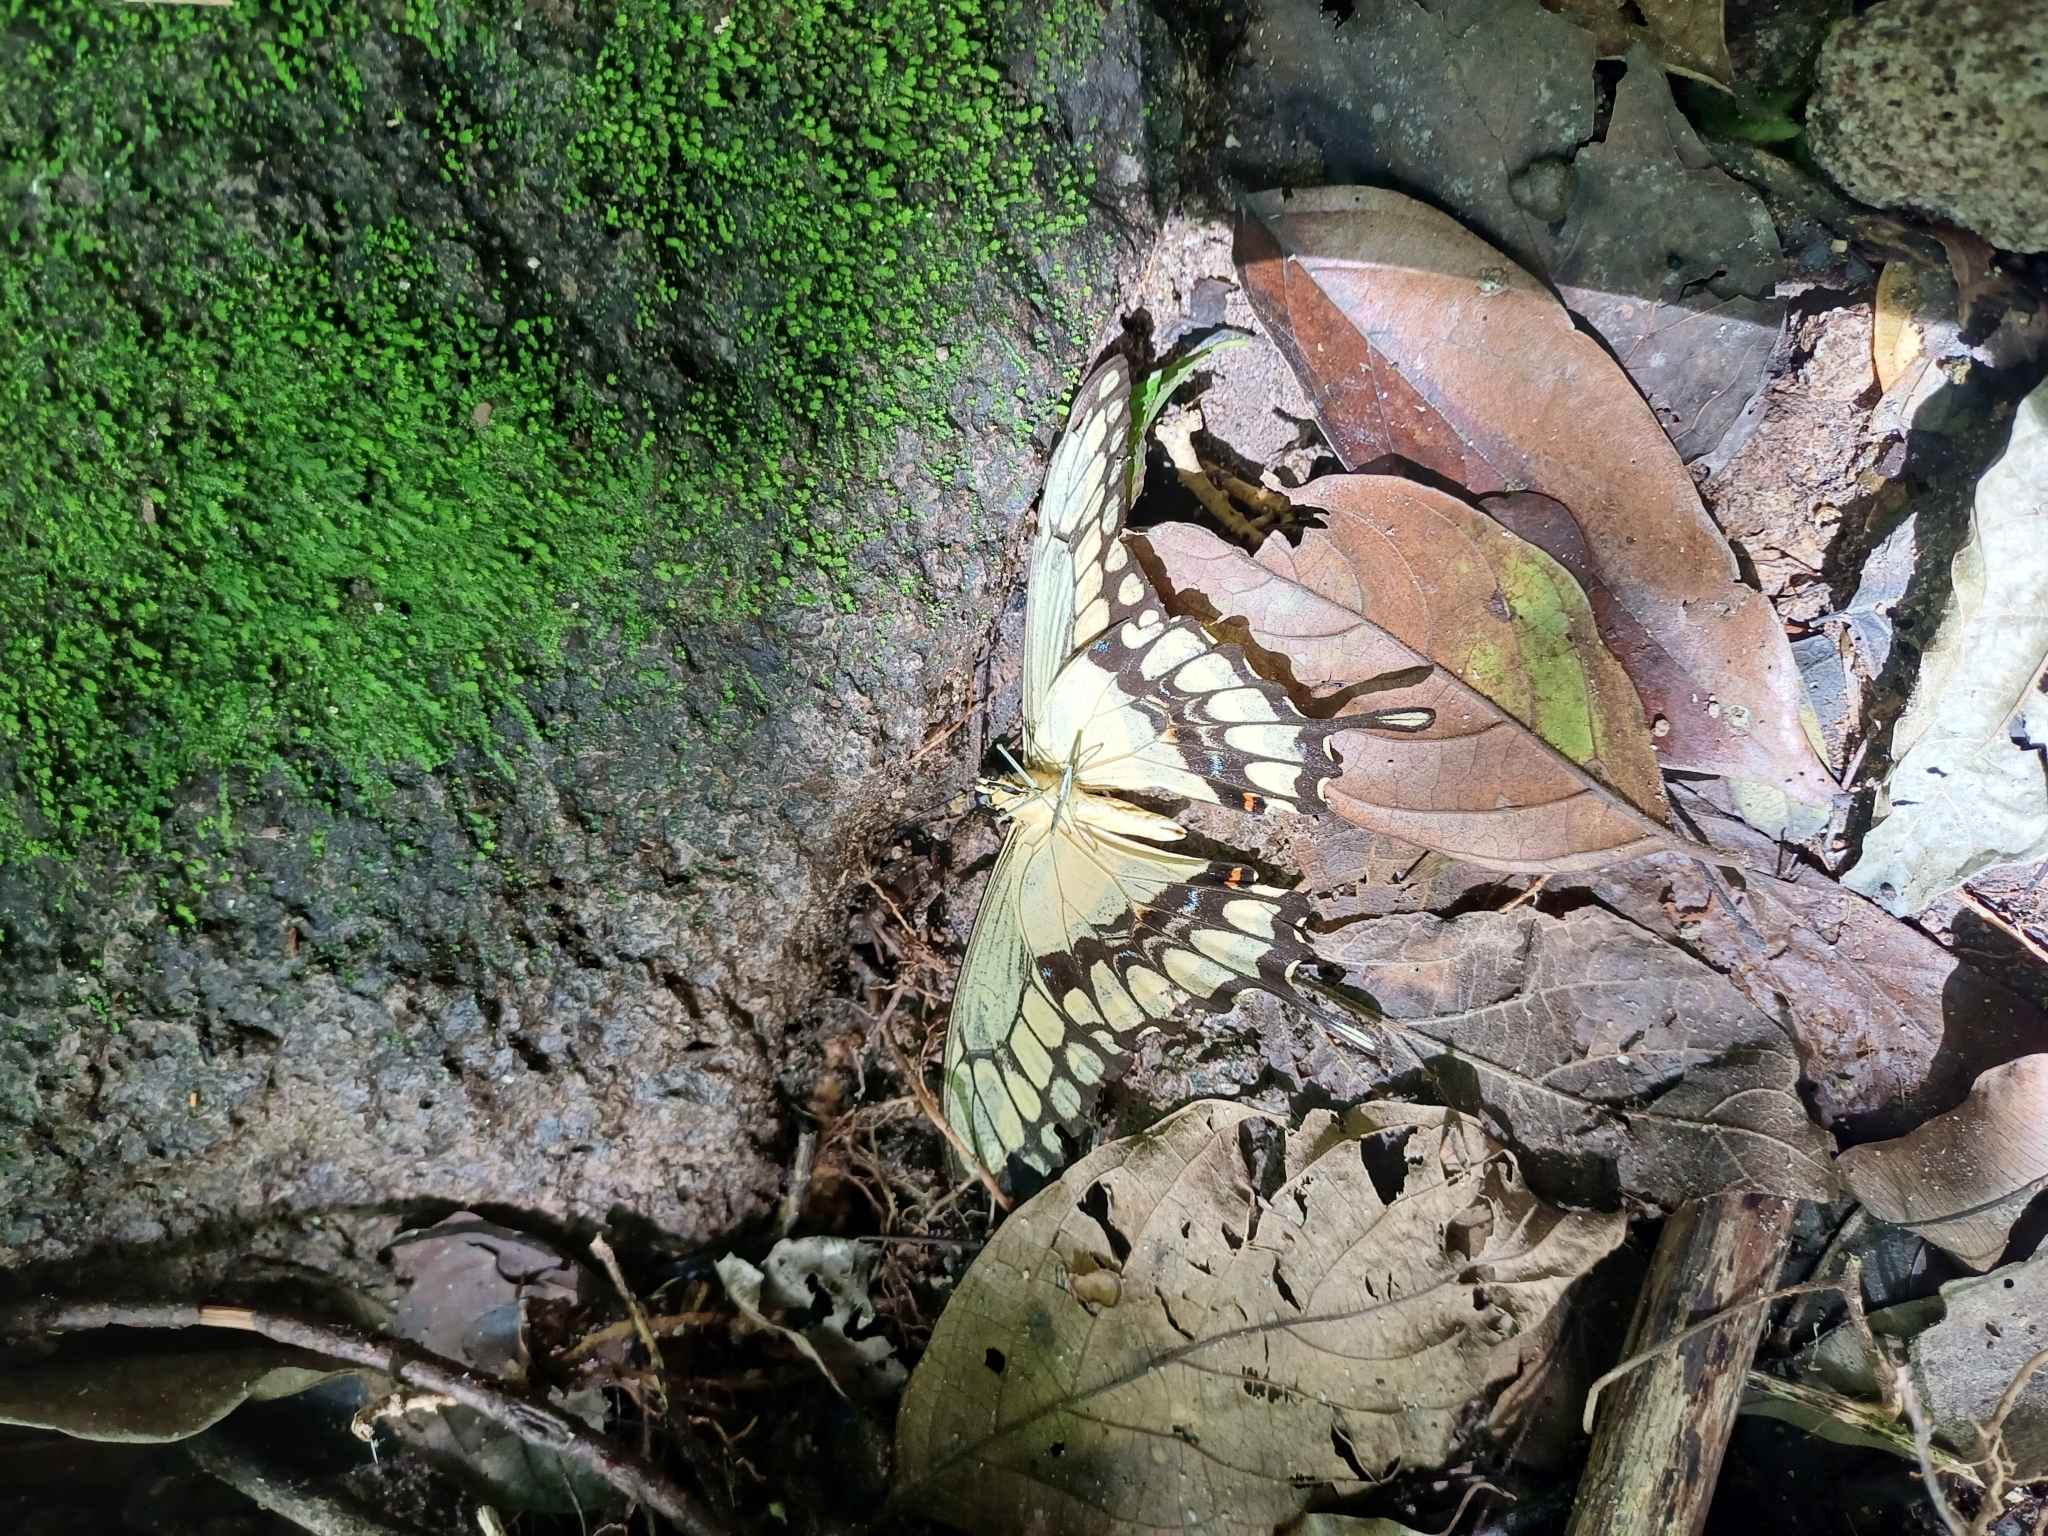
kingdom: Animalia
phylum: Arthropoda
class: Insecta
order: Lepidoptera
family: Papilionidae
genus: Papilio
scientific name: Papilio thoas
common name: King swallowtail
